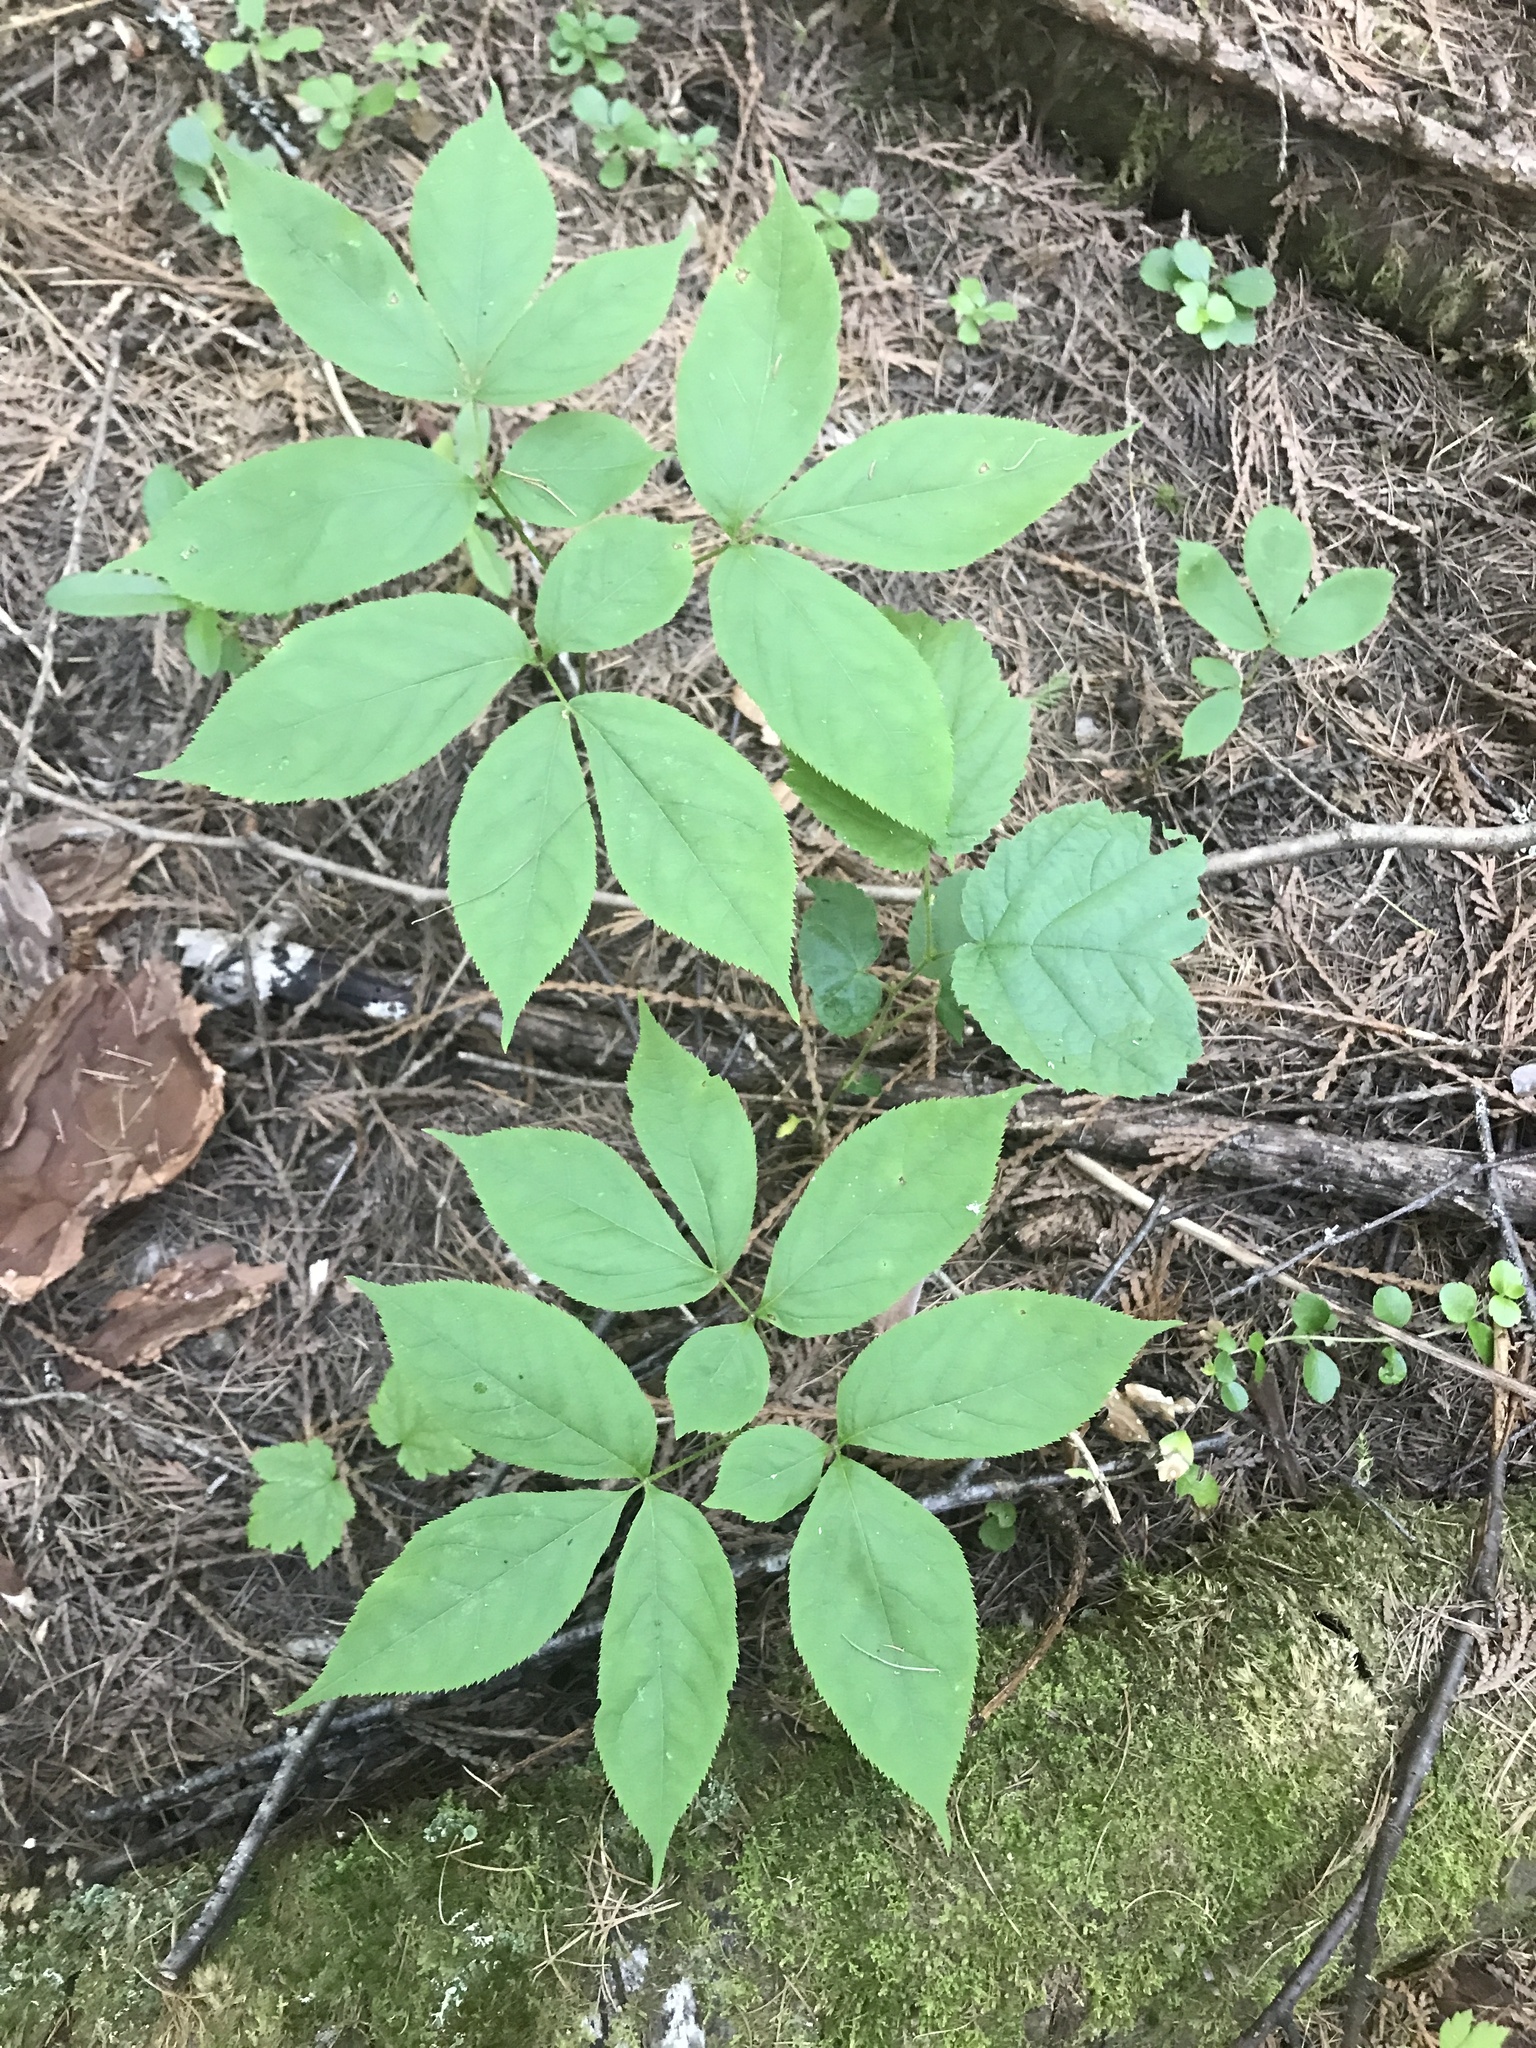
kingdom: Plantae
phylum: Tracheophyta
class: Magnoliopsida
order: Apiales
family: Araliaceae
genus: Aralia
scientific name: Aralia nudicaulis
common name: Wild sarsaparilla
